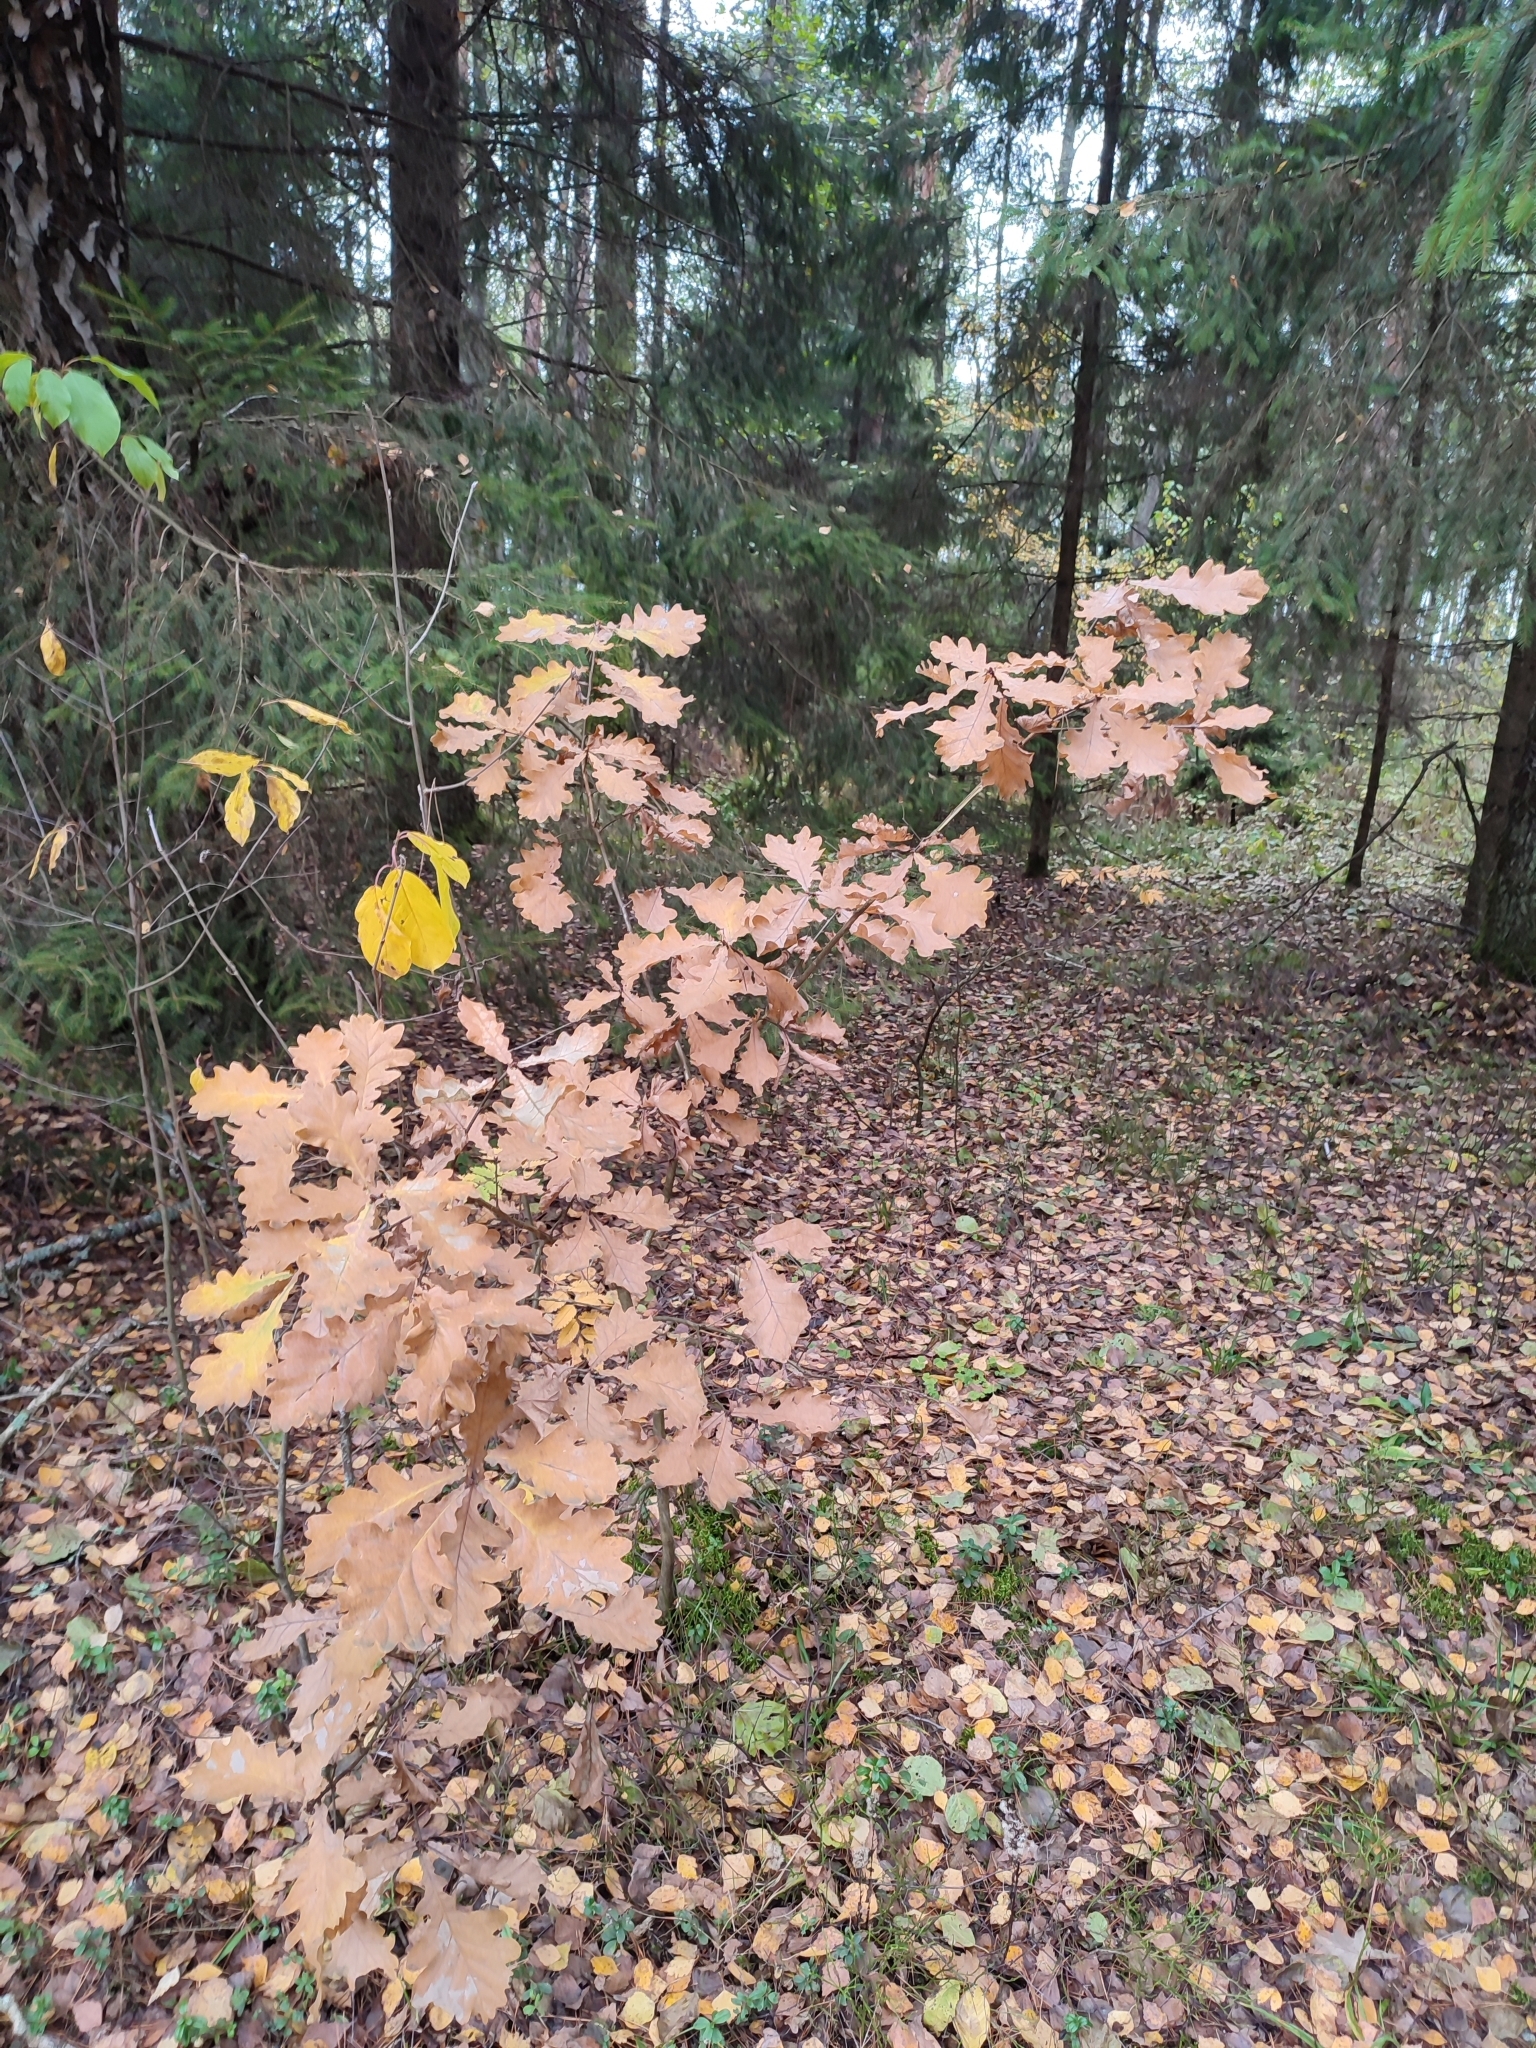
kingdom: Plantae
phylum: Tracheophyta
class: Magnoliopsida
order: Fagales
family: Fagaceae
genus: Quercus
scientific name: Quercus robur
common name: Pedunculate oak
